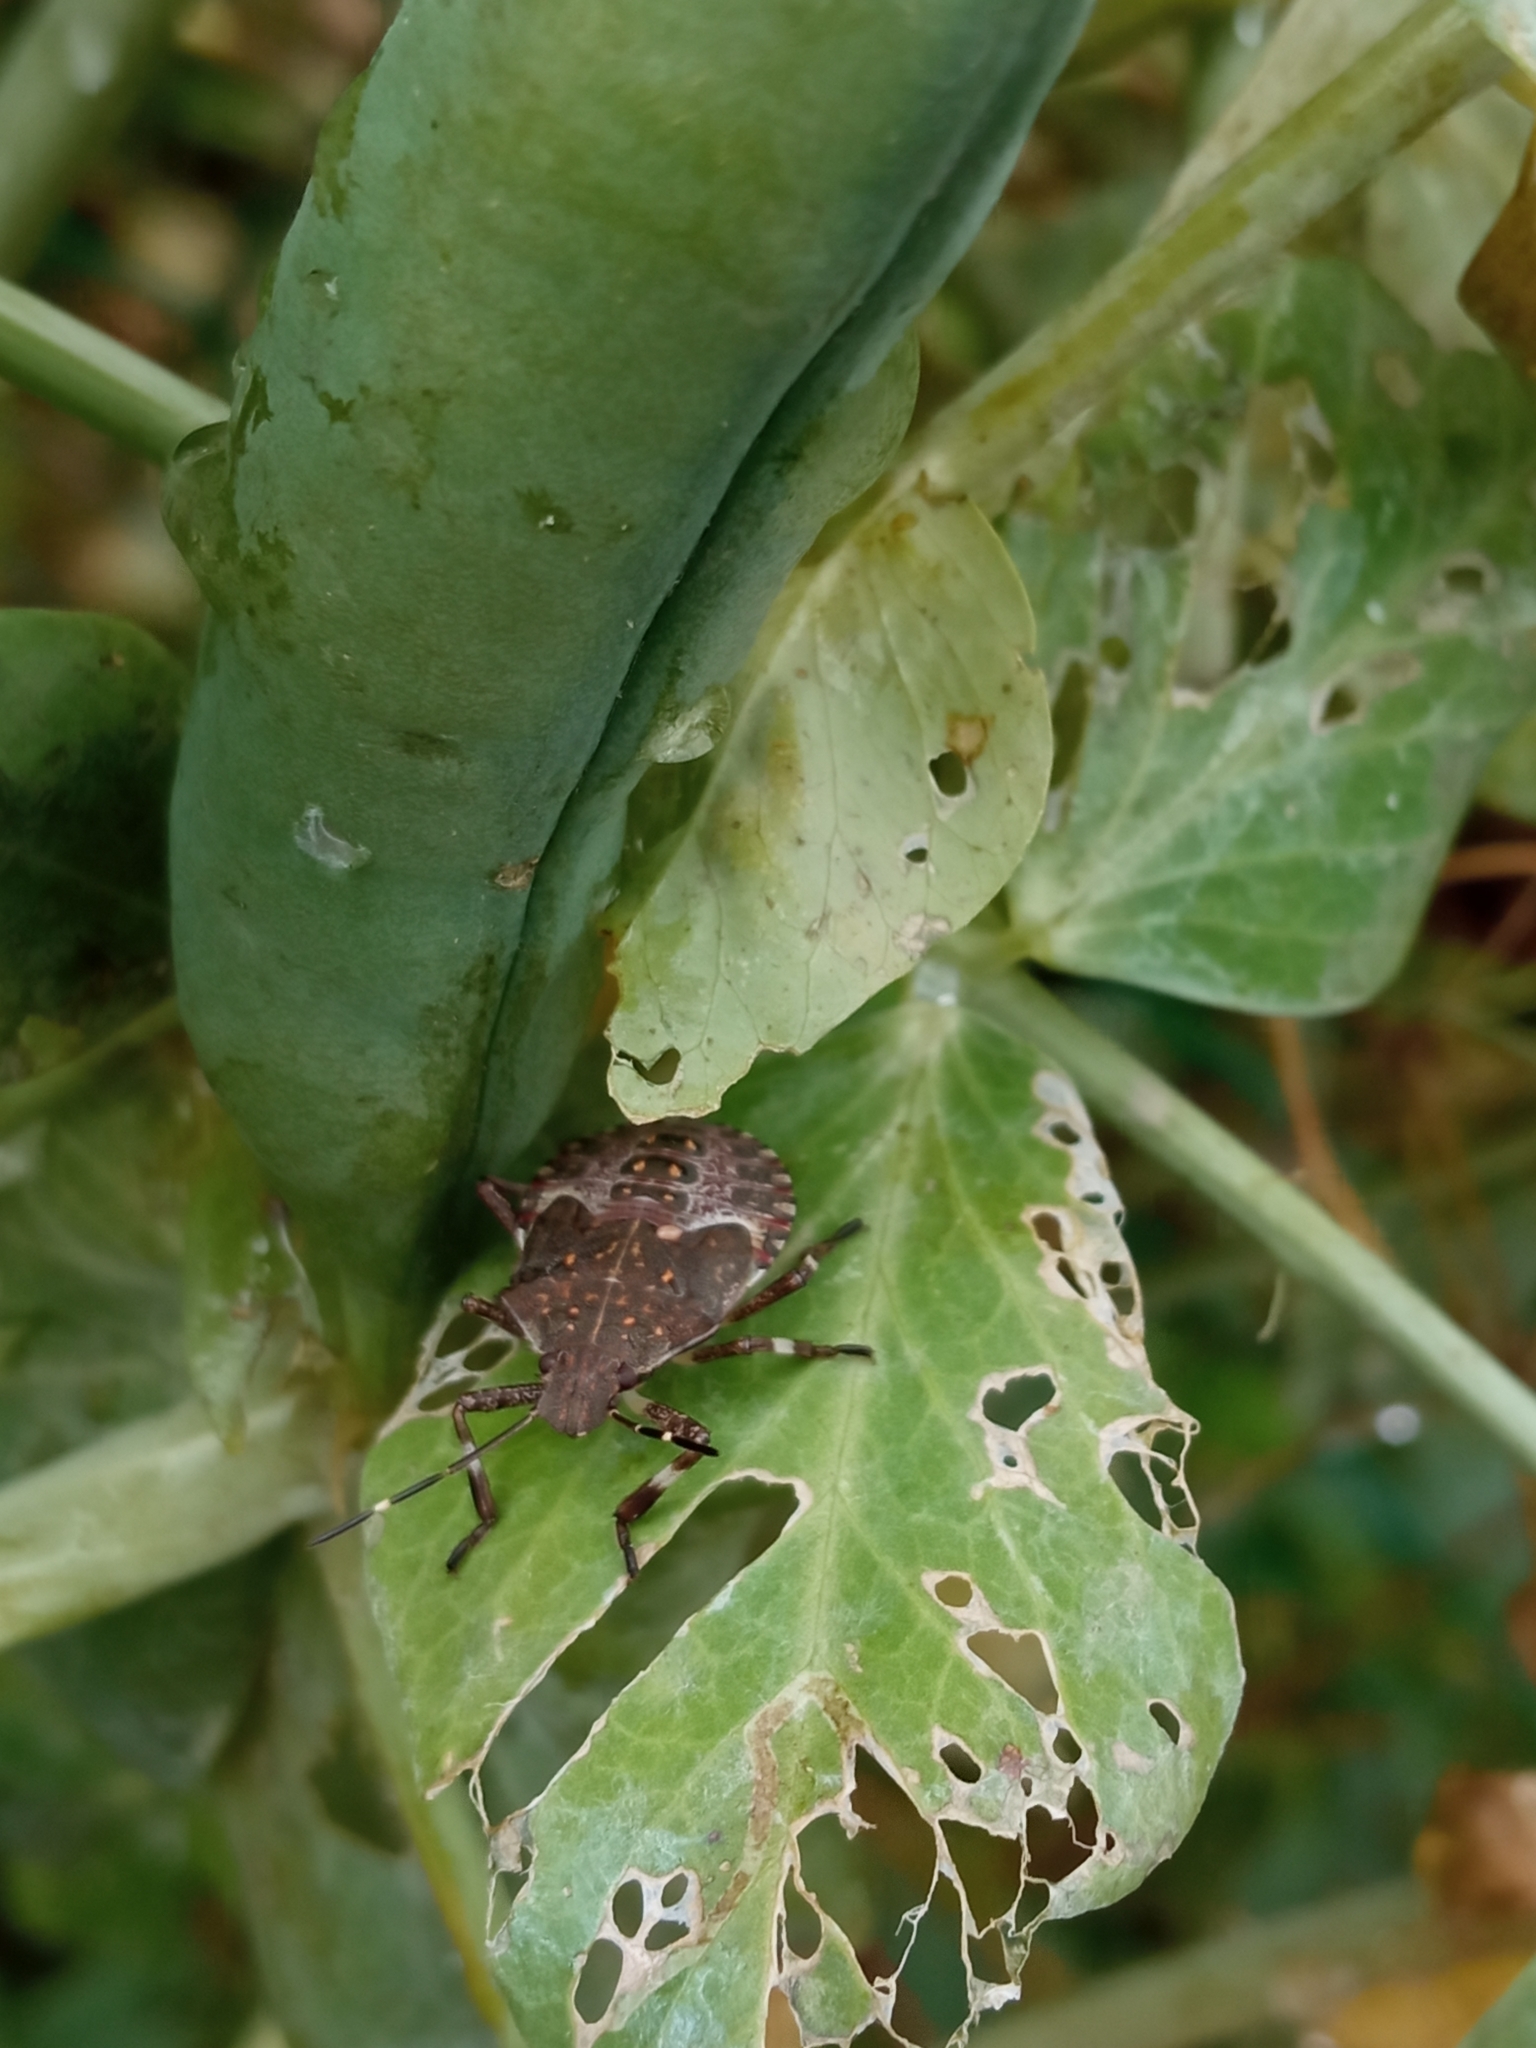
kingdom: Animalia
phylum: Arthropoda
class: Insecta
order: Hemiptera
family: Pentatomidae
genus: Halyomorpha
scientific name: Halyomorpha halys
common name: Brown marmorated stink bug
